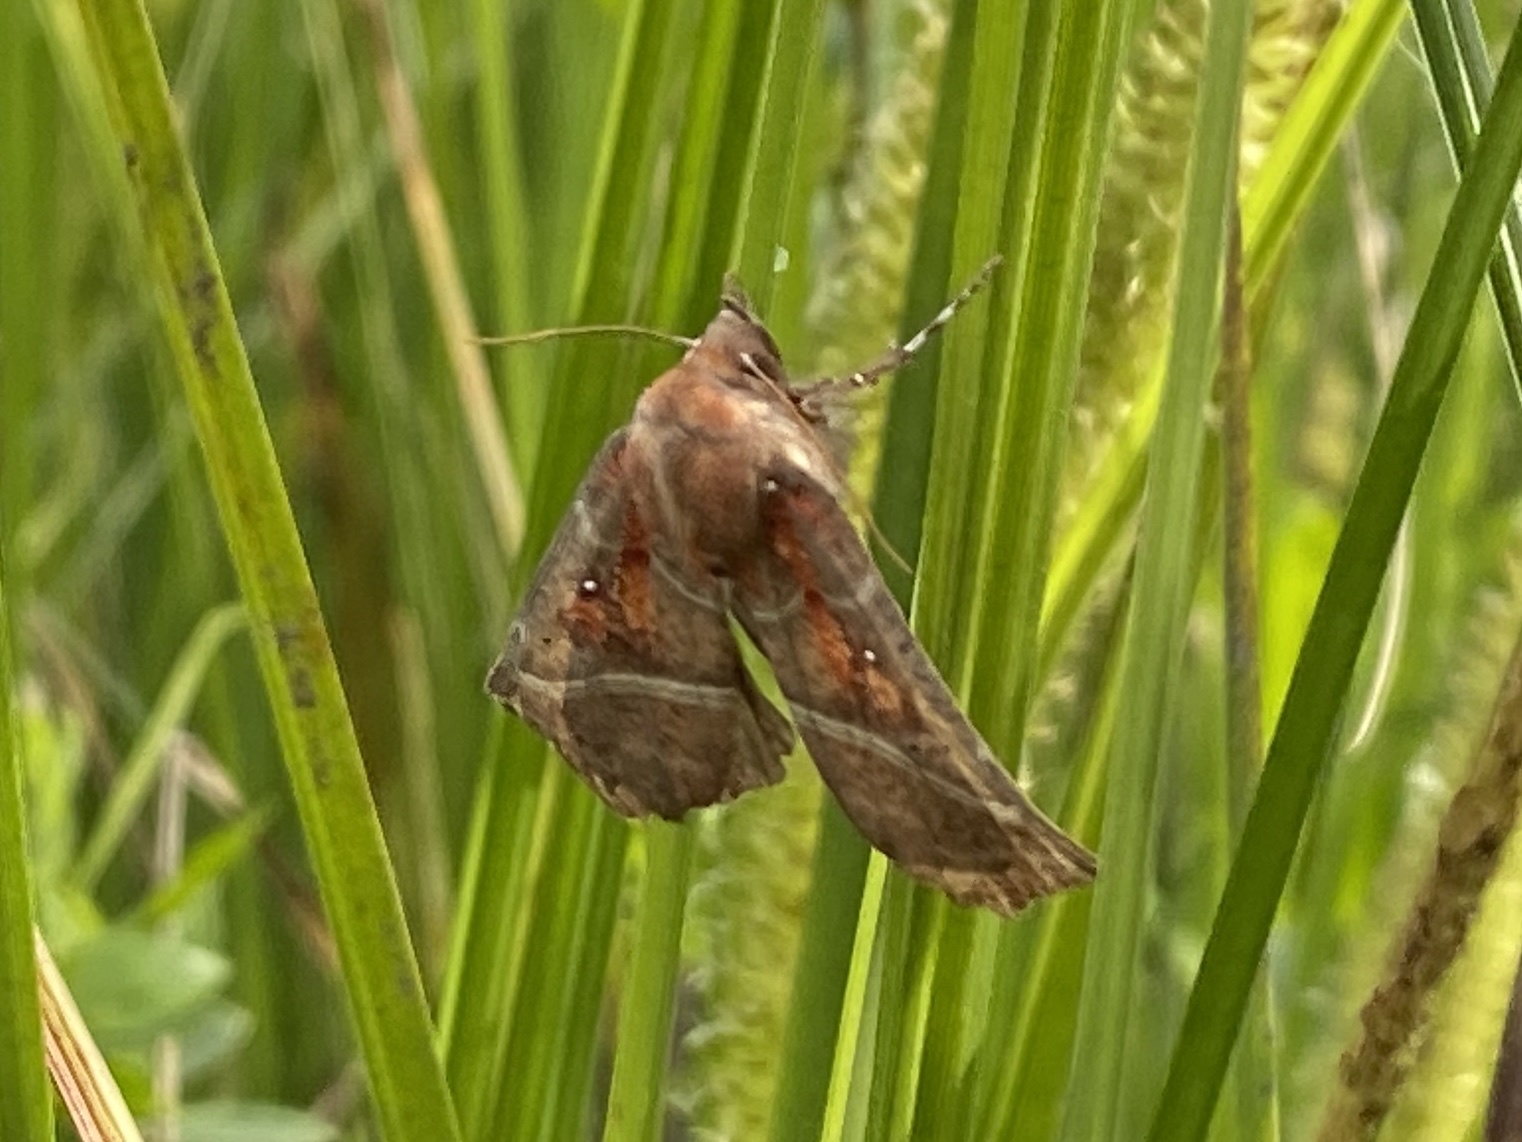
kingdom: Animalia
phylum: Arthropoda
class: Insecta
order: Lepidoptera
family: Erebidae
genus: Scoliopteryx
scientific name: Scoliopteryx libatrix
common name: Herald
